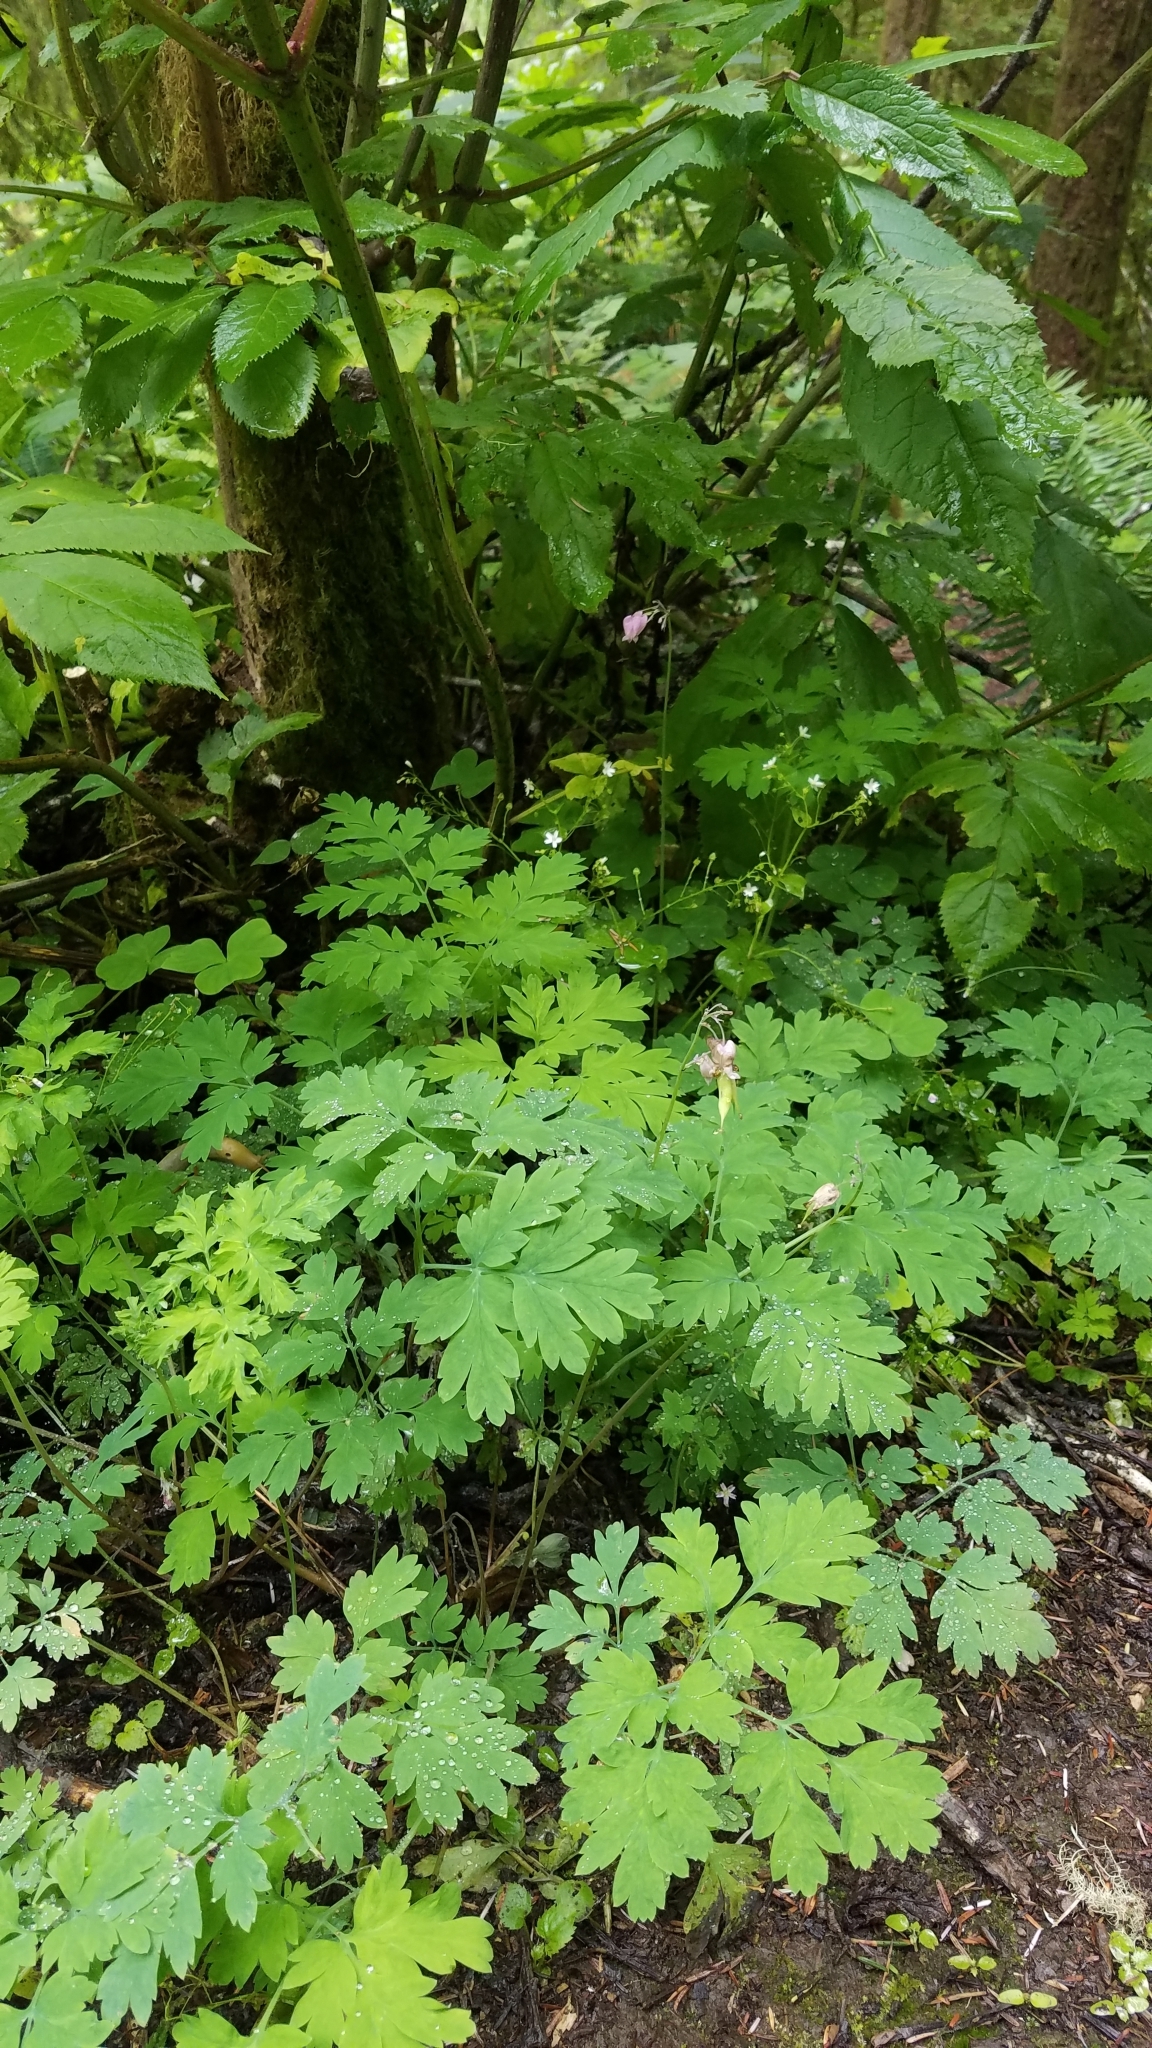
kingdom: Plantae
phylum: Tracheophyta
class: Magnoliopsida
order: Ranunculales
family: Papaveraceae
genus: Dicentra
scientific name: Dicentra formosa
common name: Bleeding-heart
